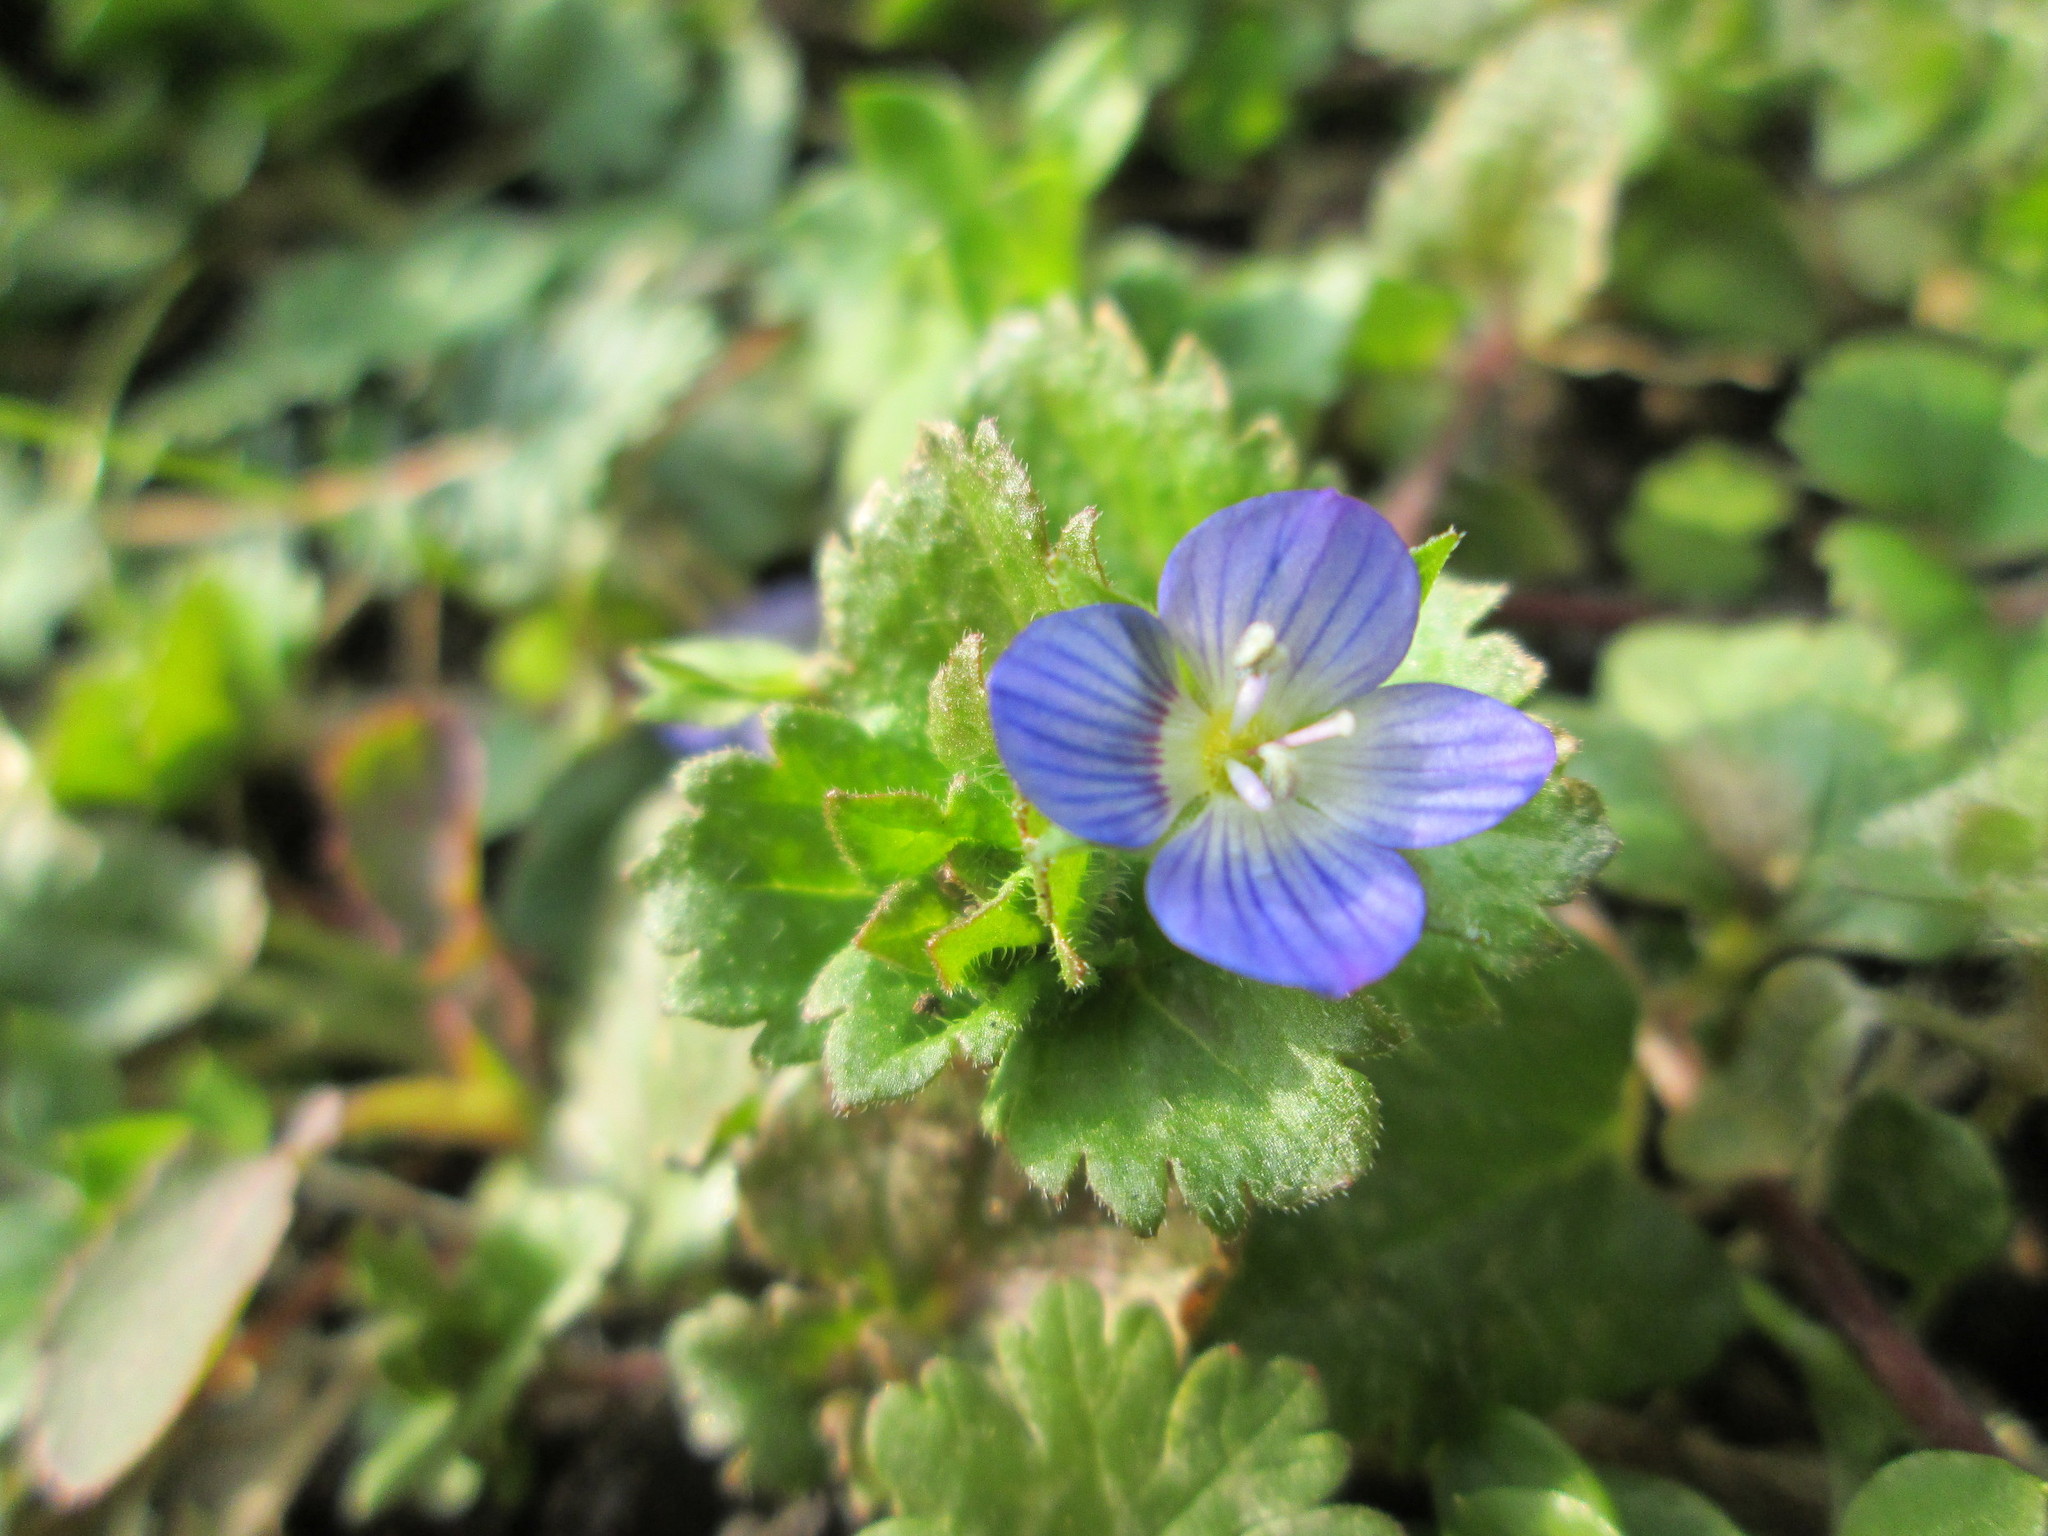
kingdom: Plantae
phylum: Tracheophyta
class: Magnoliopsida
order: Lamiales
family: Plantaginaceae
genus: Veronica
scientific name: Veronica persica
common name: Common field-speedwell
